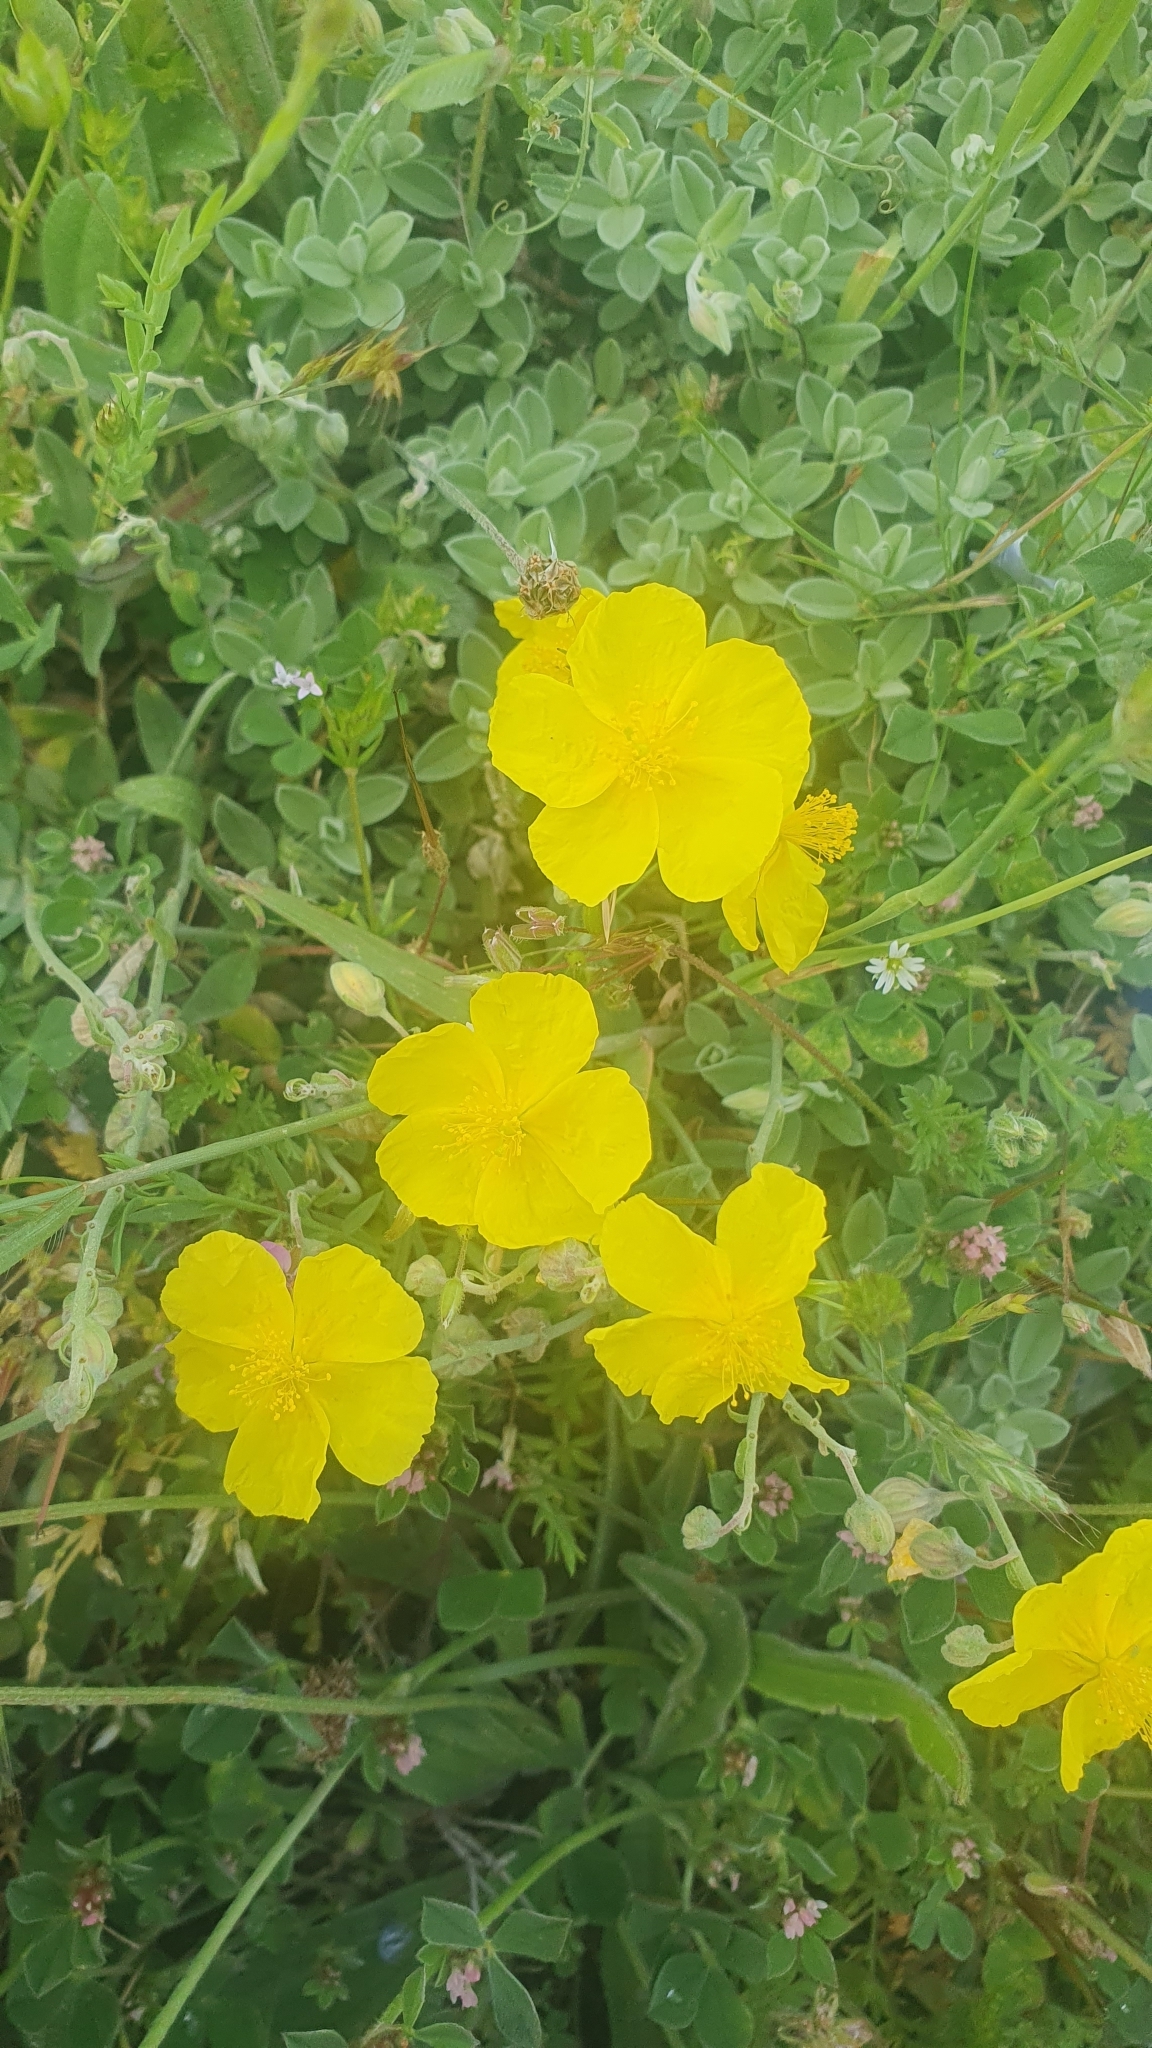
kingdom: Plantae
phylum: Tracheophyta
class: Magnoliopsida
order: Malvales
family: Cistaceae
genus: Halimium
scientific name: Halimium lasianthum
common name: Lisbon false sun-rose
